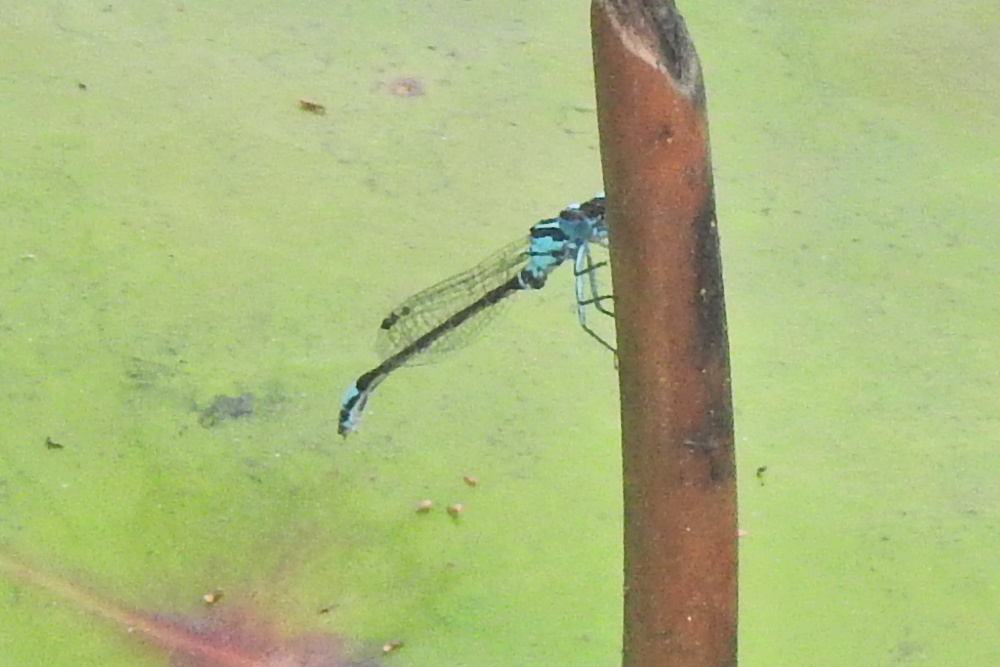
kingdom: Animalia
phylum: Arthropoda
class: Insecta
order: Odonata
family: Coenagrionidae
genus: Ischnura
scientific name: Ischnura kellicotti
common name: Lilypad forktail
